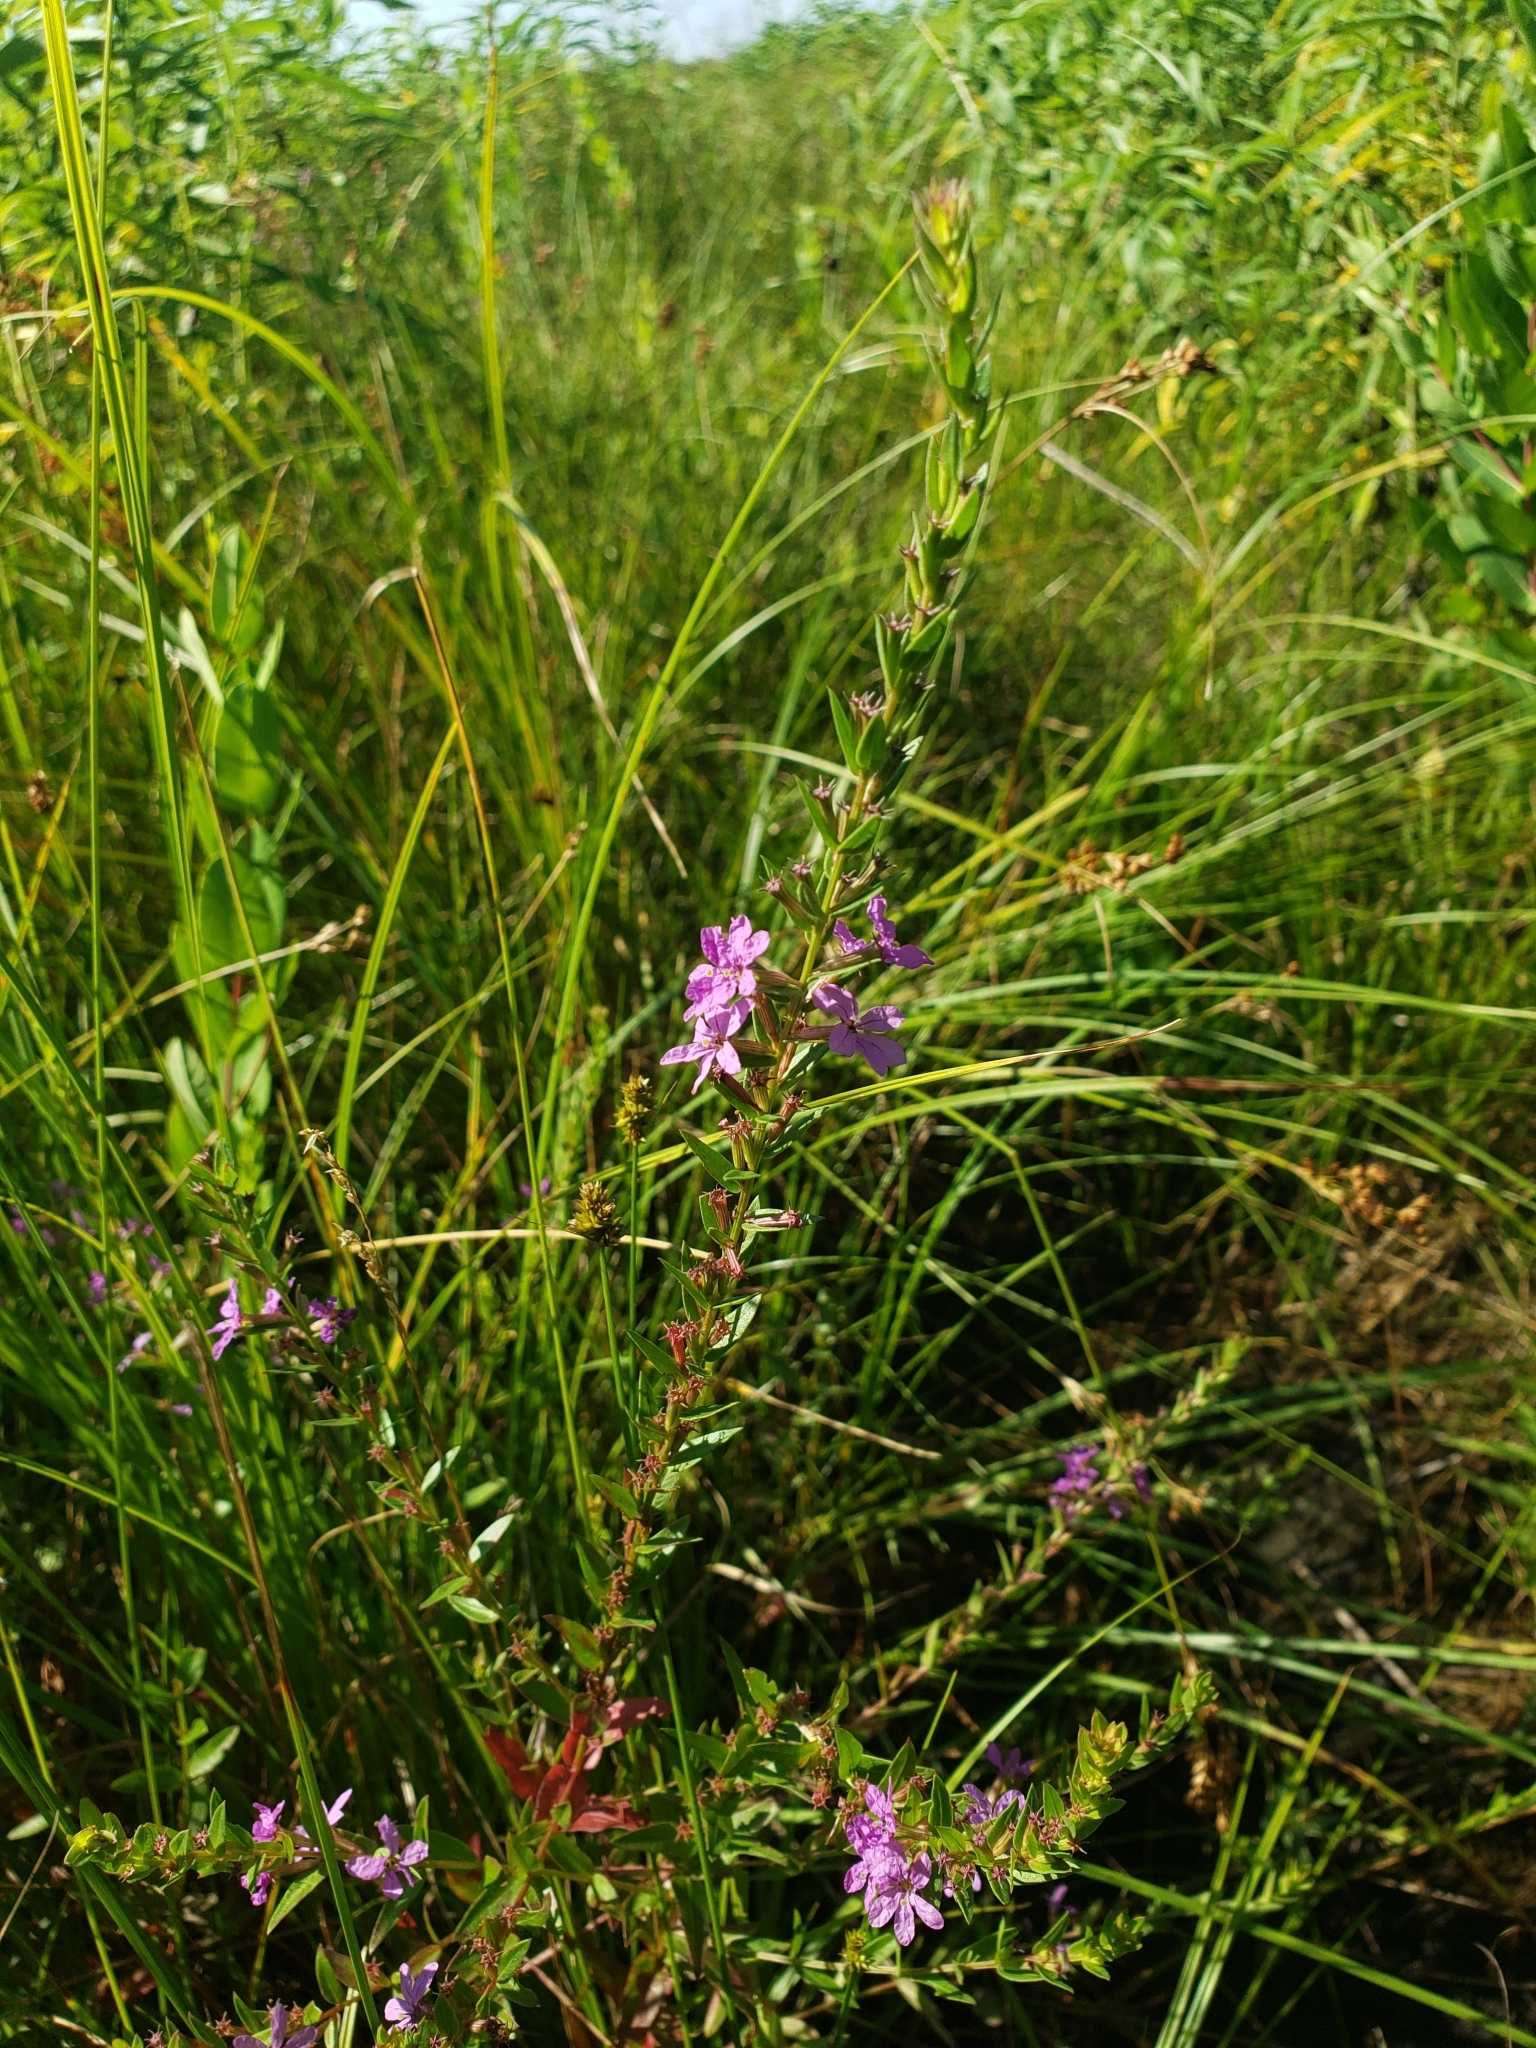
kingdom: Plantae
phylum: Tracheophyta
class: Magnoliopsida
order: Myrtales
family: Lythraceae
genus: Lythrum
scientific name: Lythrum alatum
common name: Winged loosestrife
